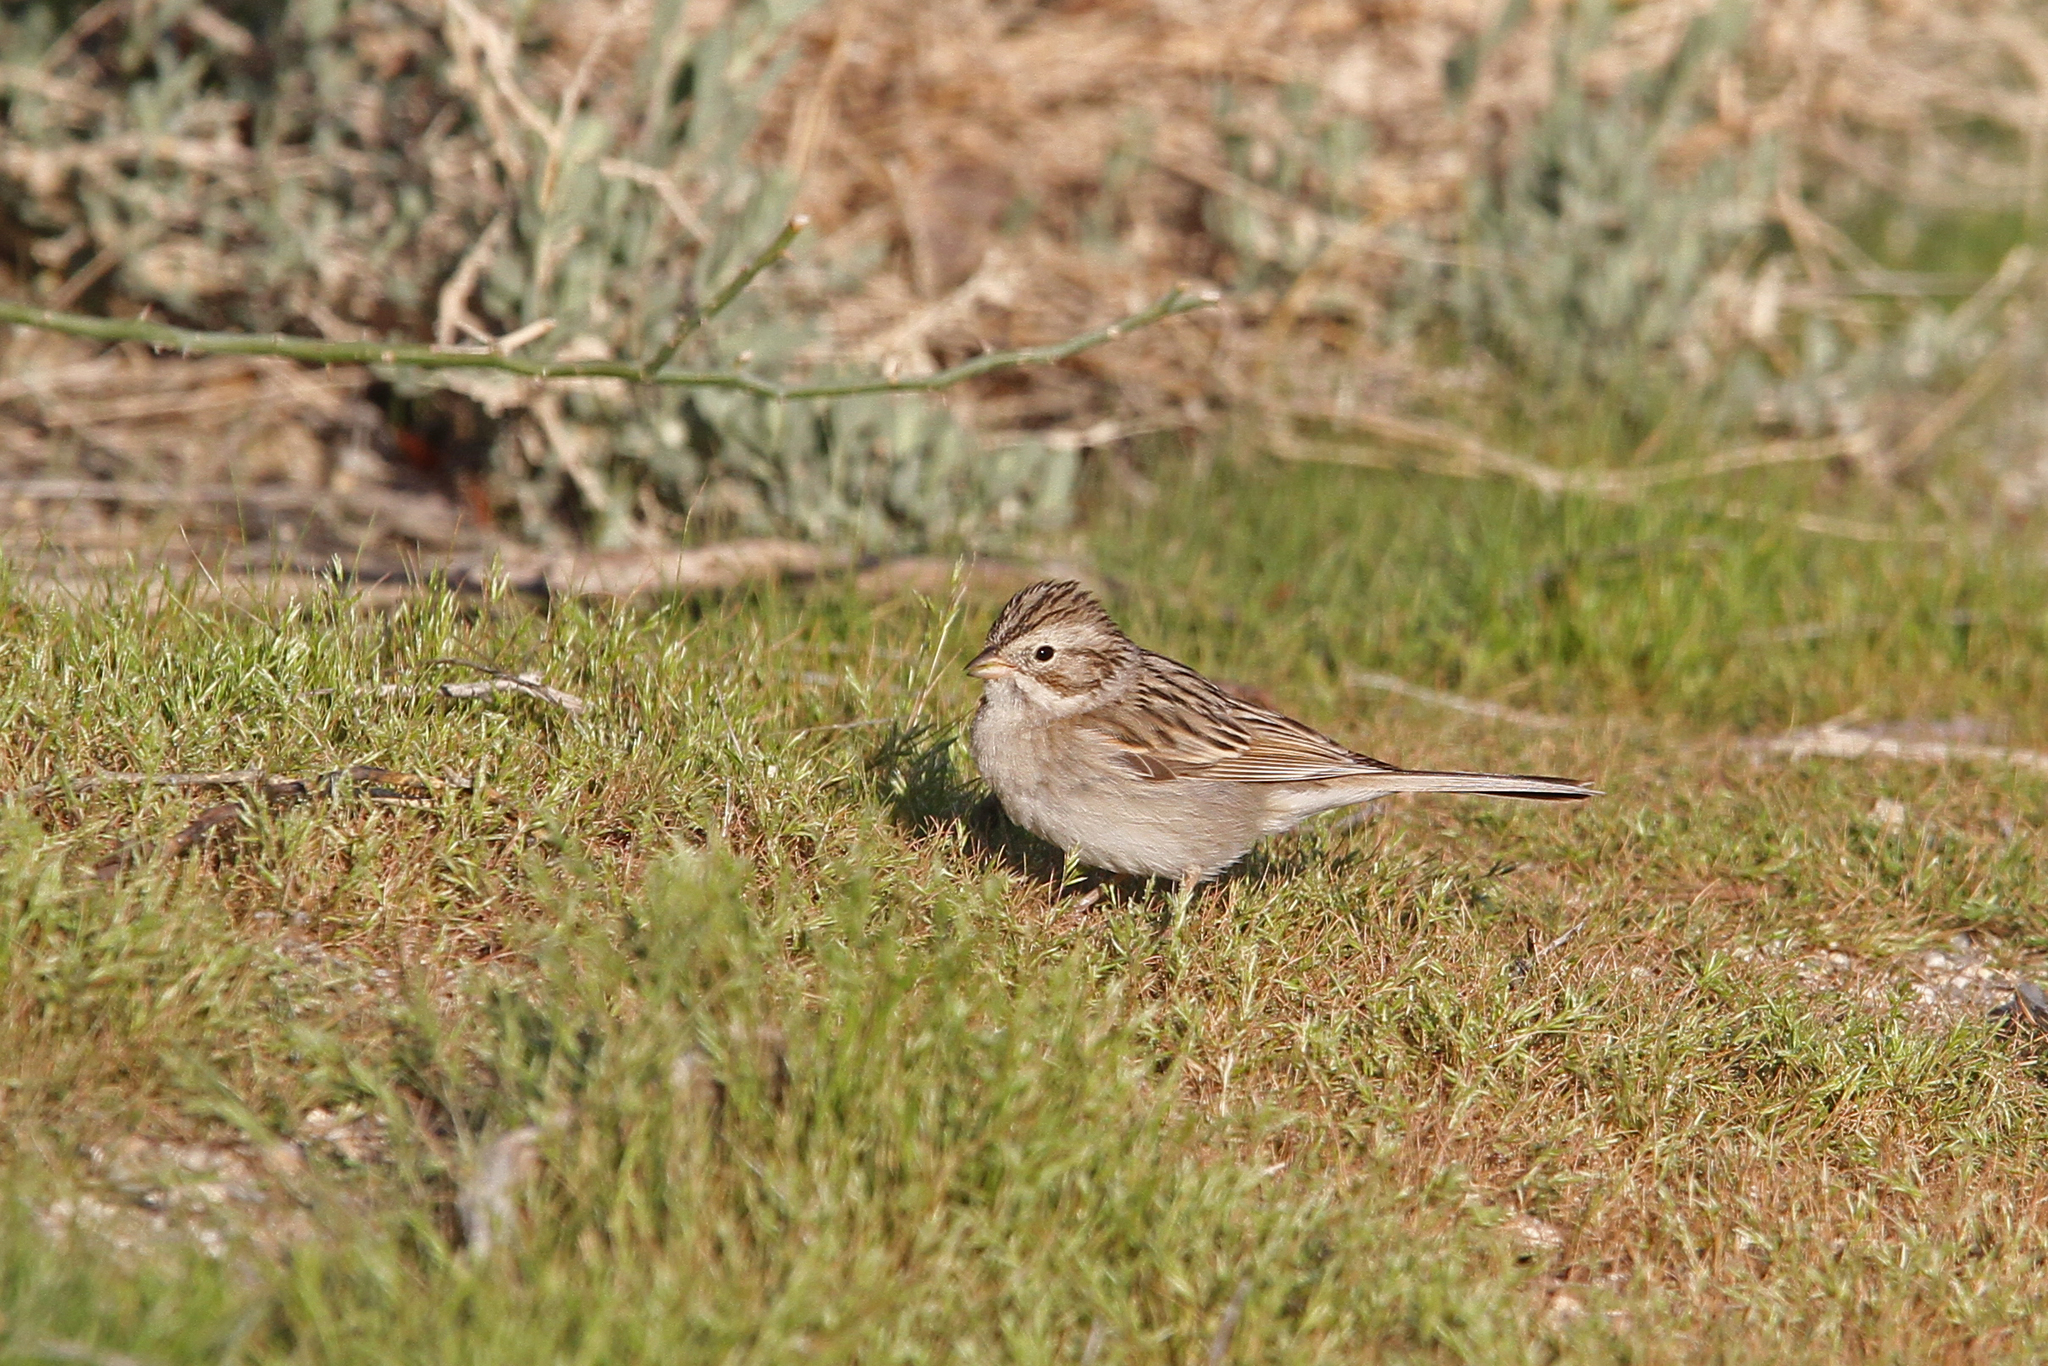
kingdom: Animalia
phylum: Chordata
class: Aves
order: Passeriformes
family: Passerellidae
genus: Spizella
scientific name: Spizella breweri
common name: Brewer's sparrow
